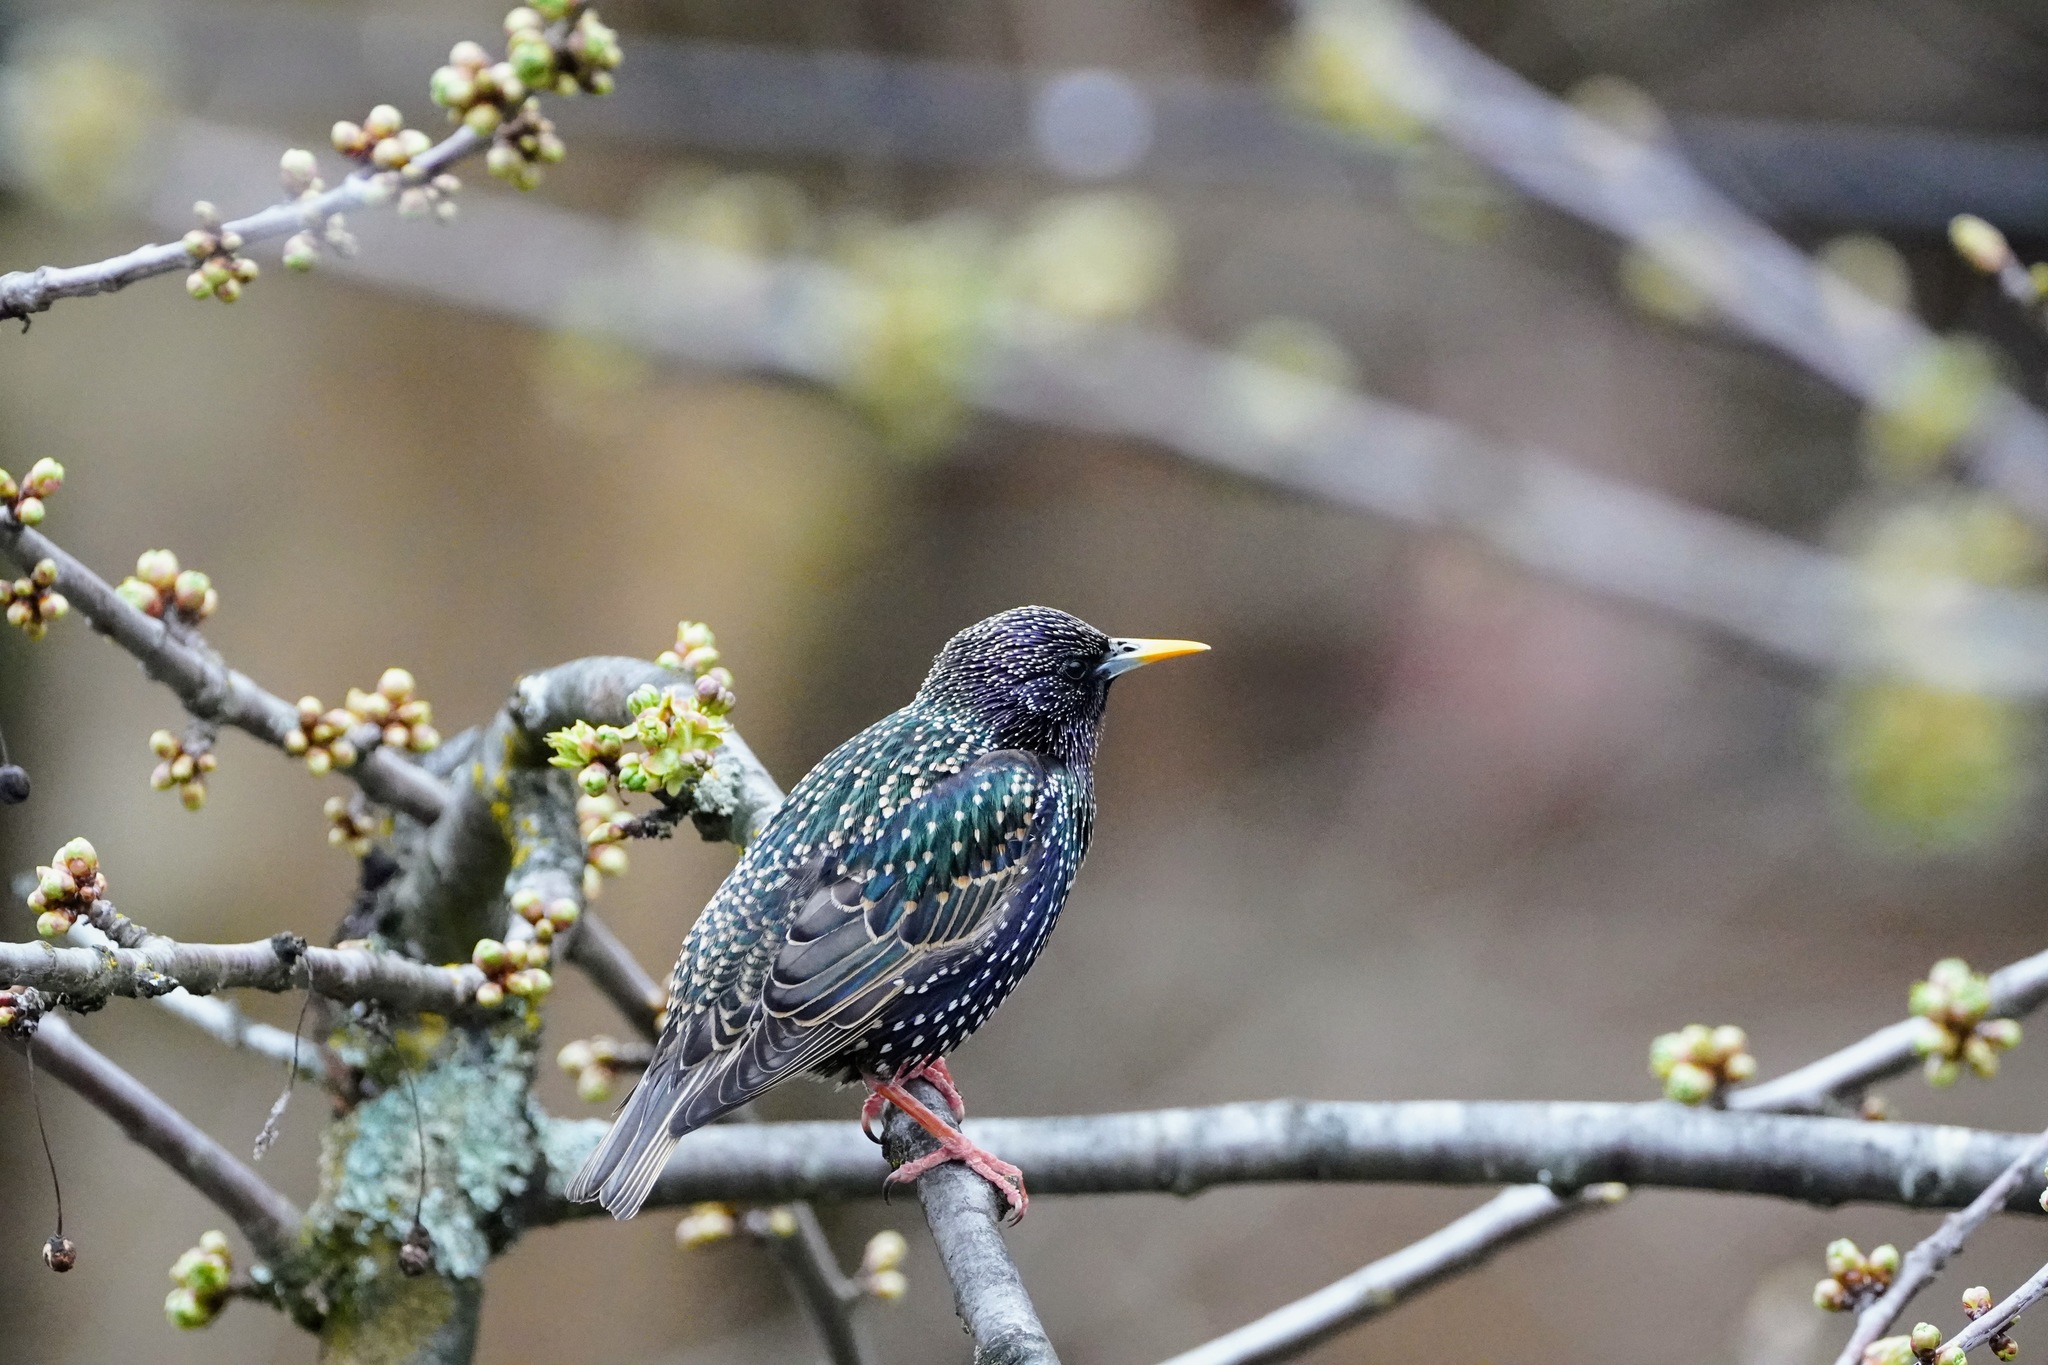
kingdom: Animalia
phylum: Chordata
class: Aves
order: Passeriformes
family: Sturnidae
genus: Sturnus
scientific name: Sturnus vulgaris
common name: Common starling
